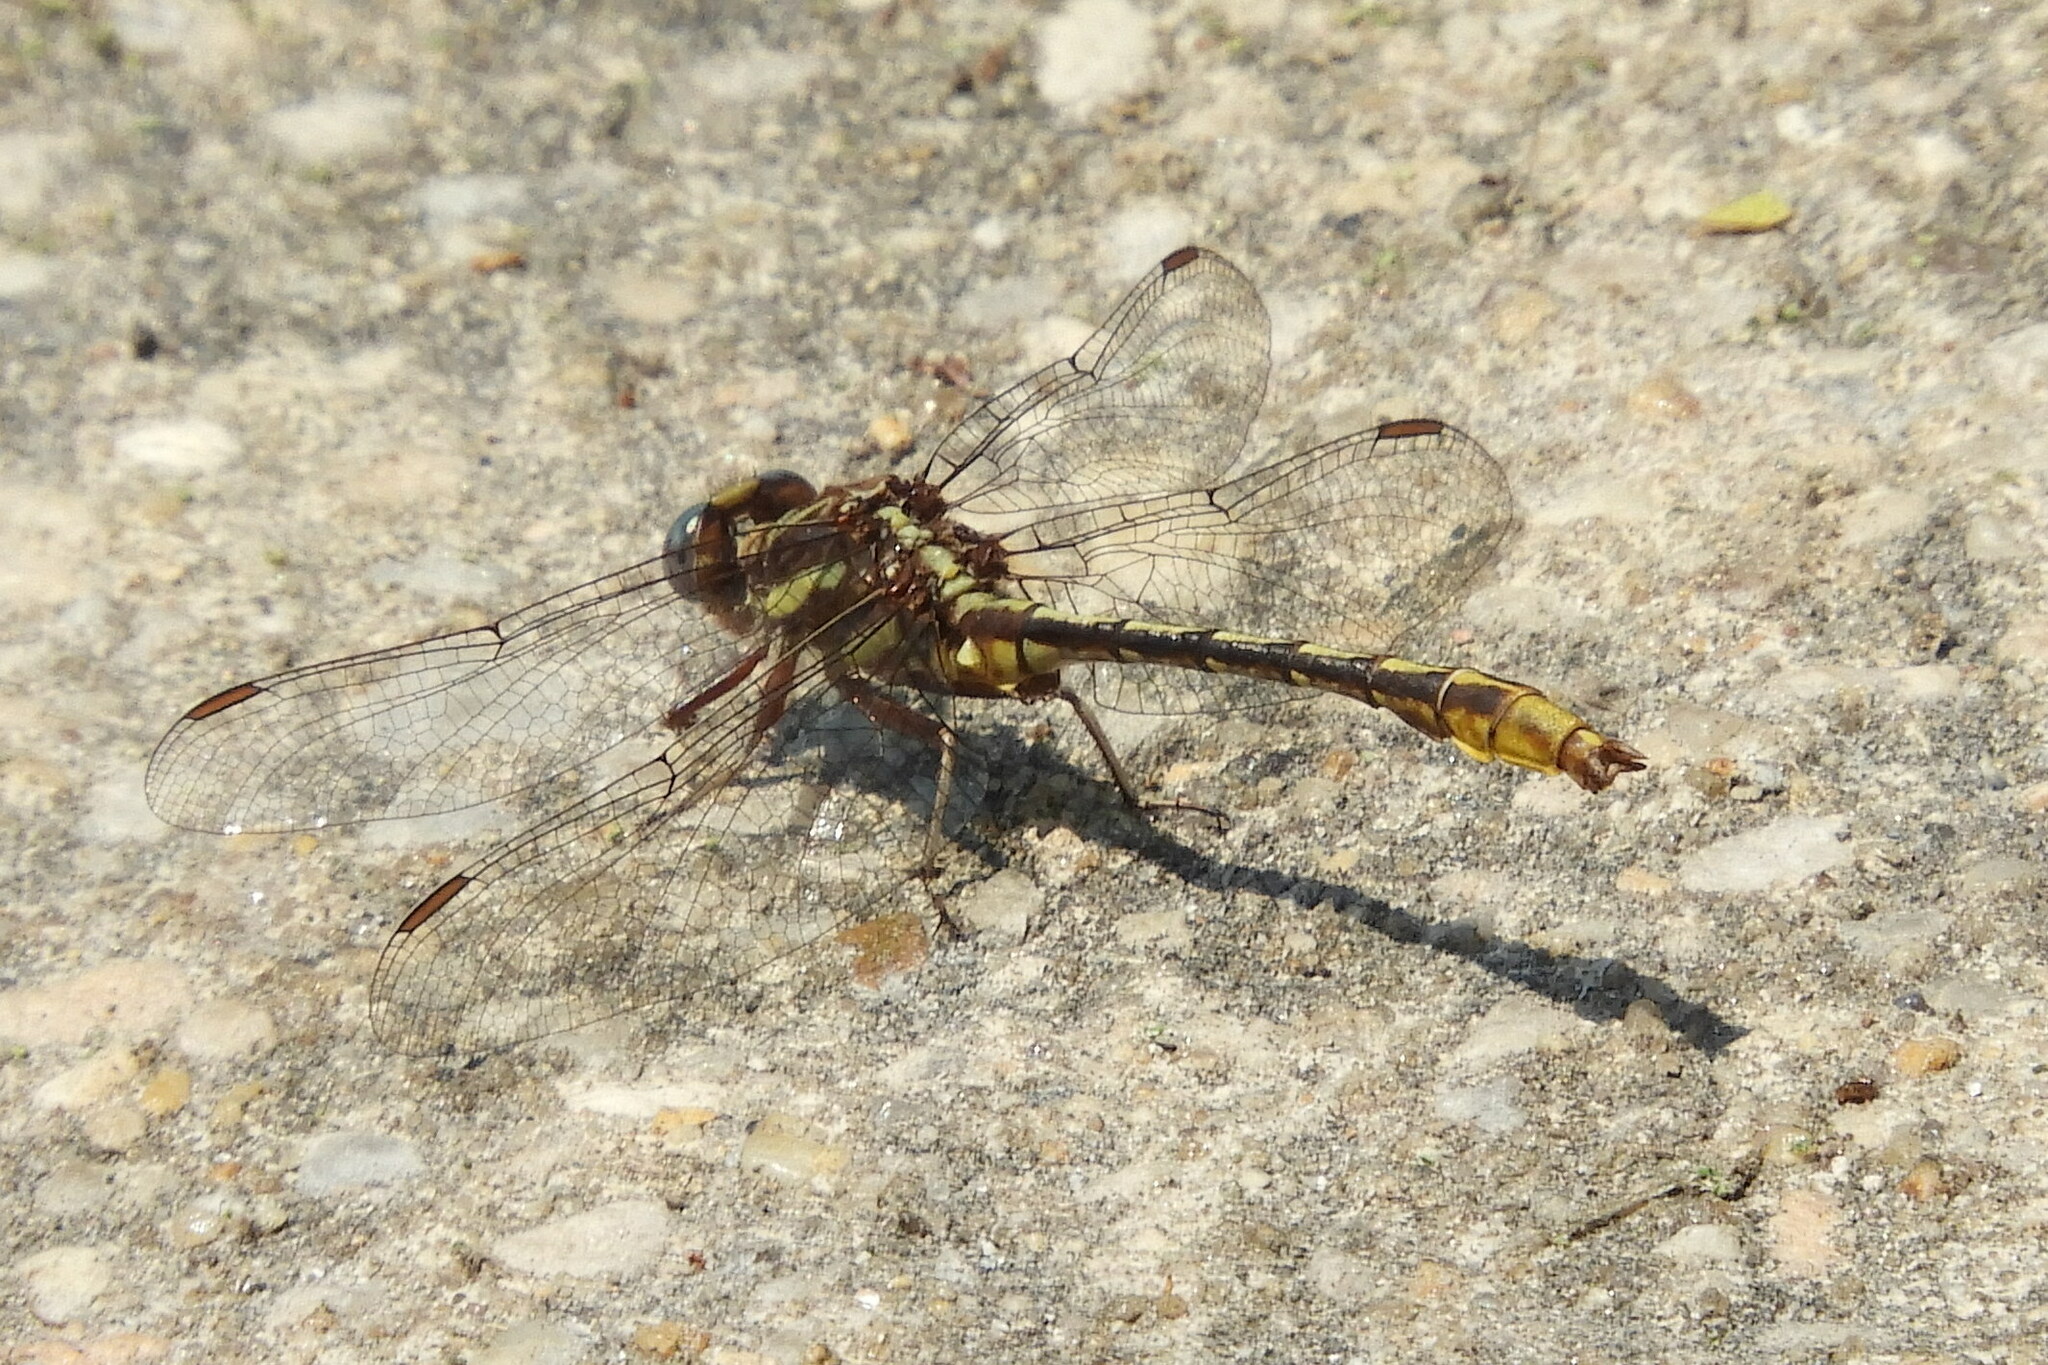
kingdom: Animalia
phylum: Arthropoda
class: Insecta
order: Odonata
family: Gomphidae
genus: Phanogomphus
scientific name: Phanogomphus exilis
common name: Lancet clubtail
